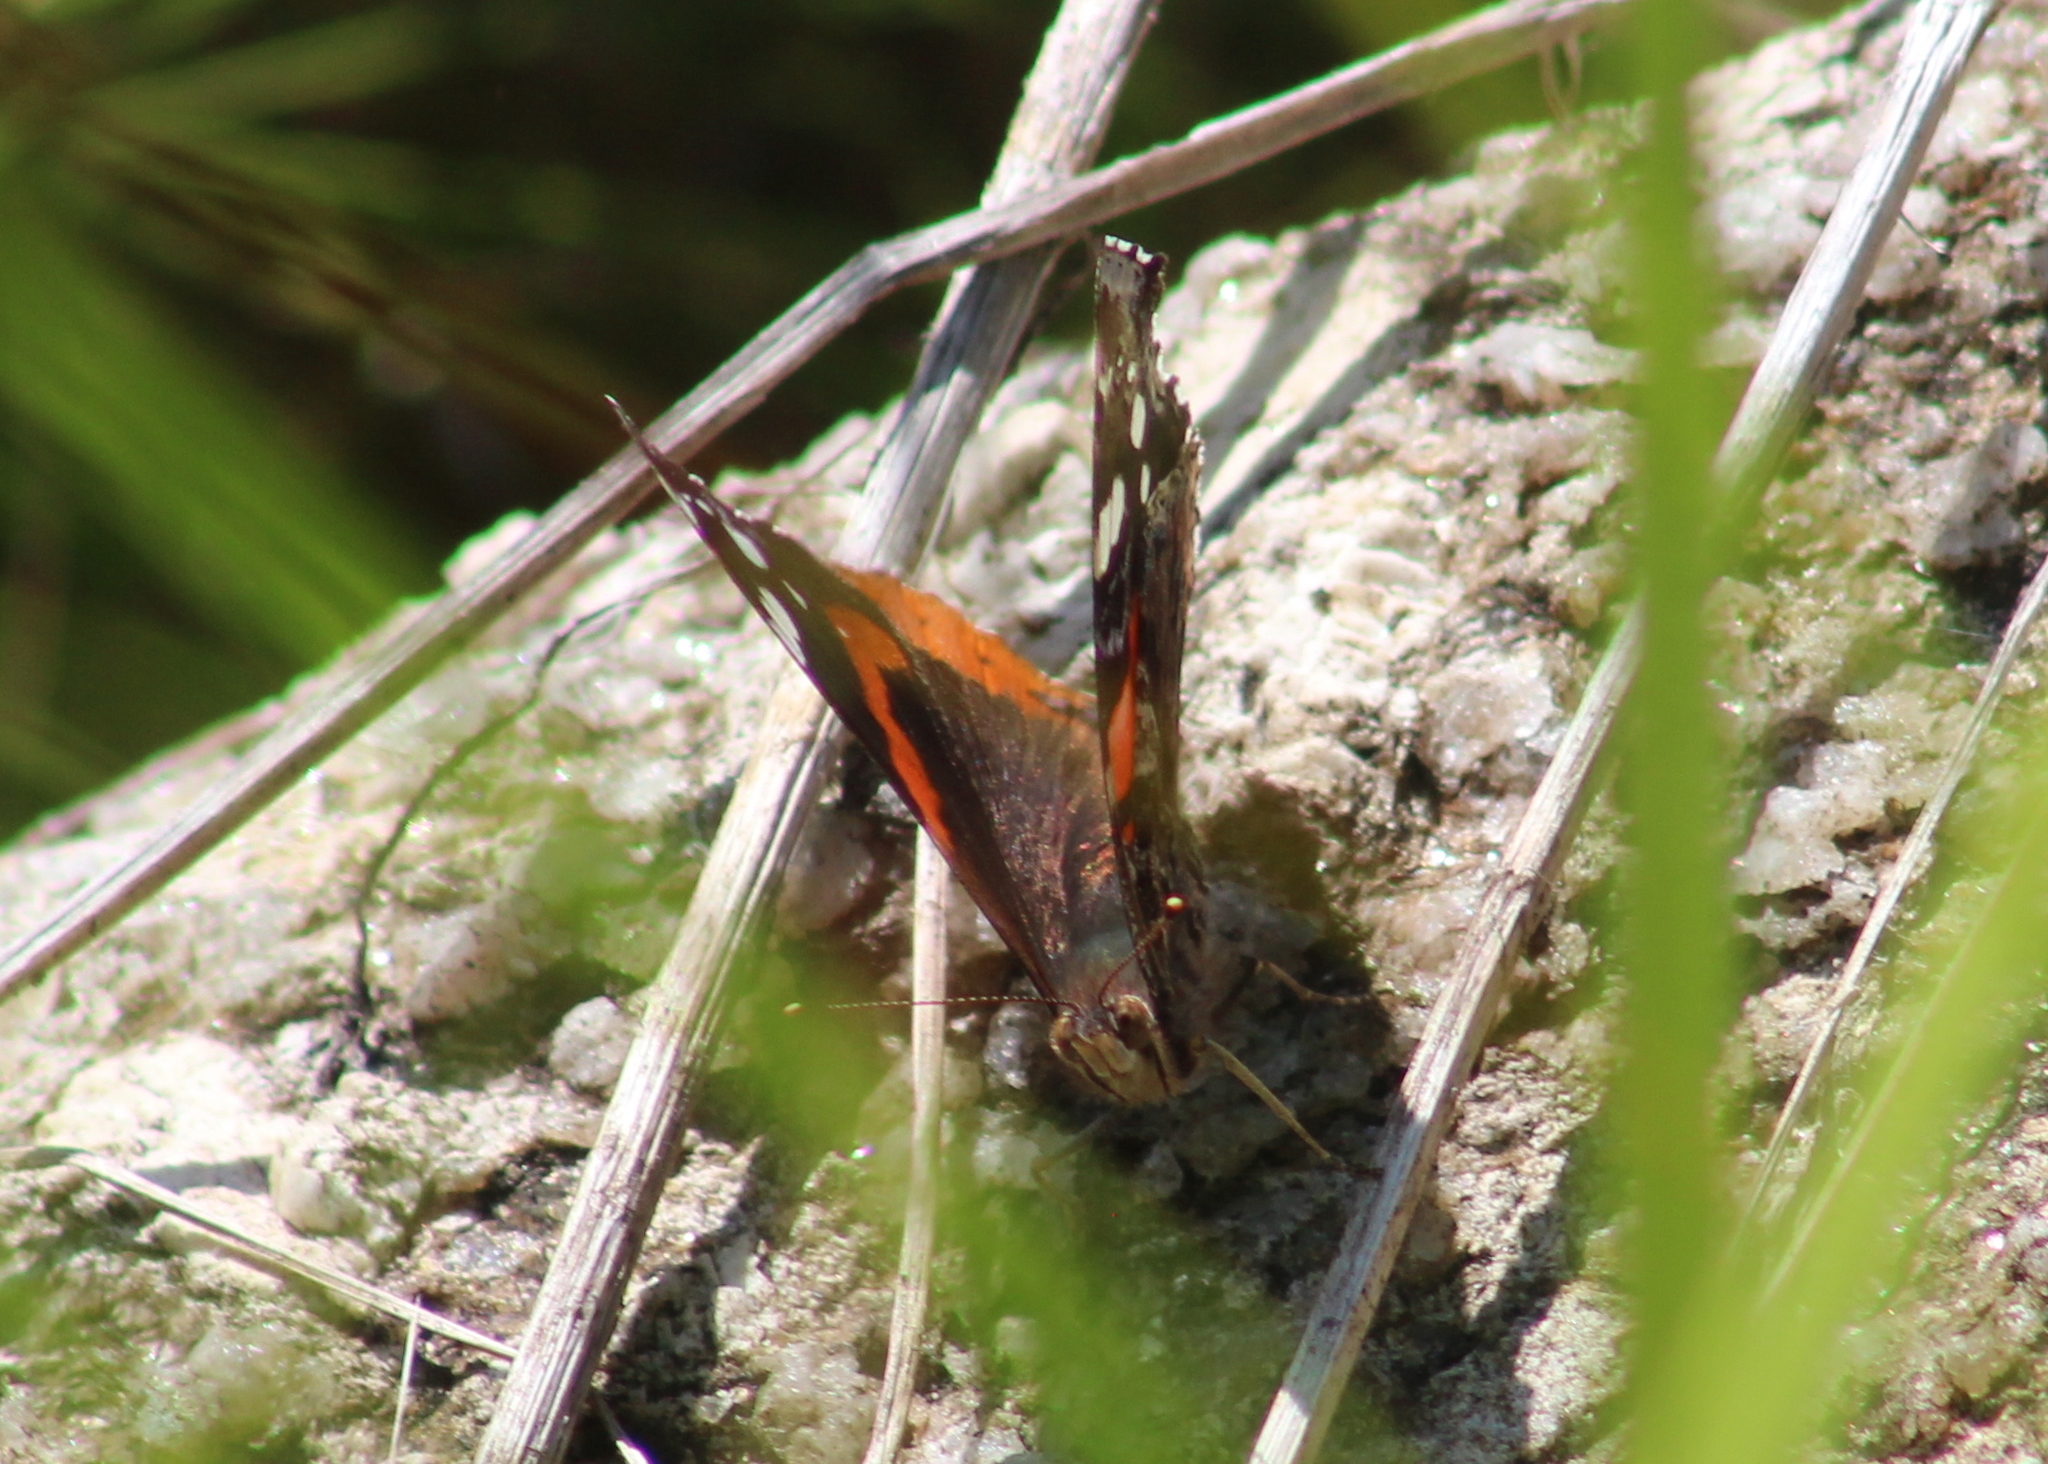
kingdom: Animalia
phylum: Arthropoda
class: Insecta
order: Lepidoptera
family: Nymphalidae
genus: Vanessa
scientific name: Vanessa atalanta
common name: Red admiral
